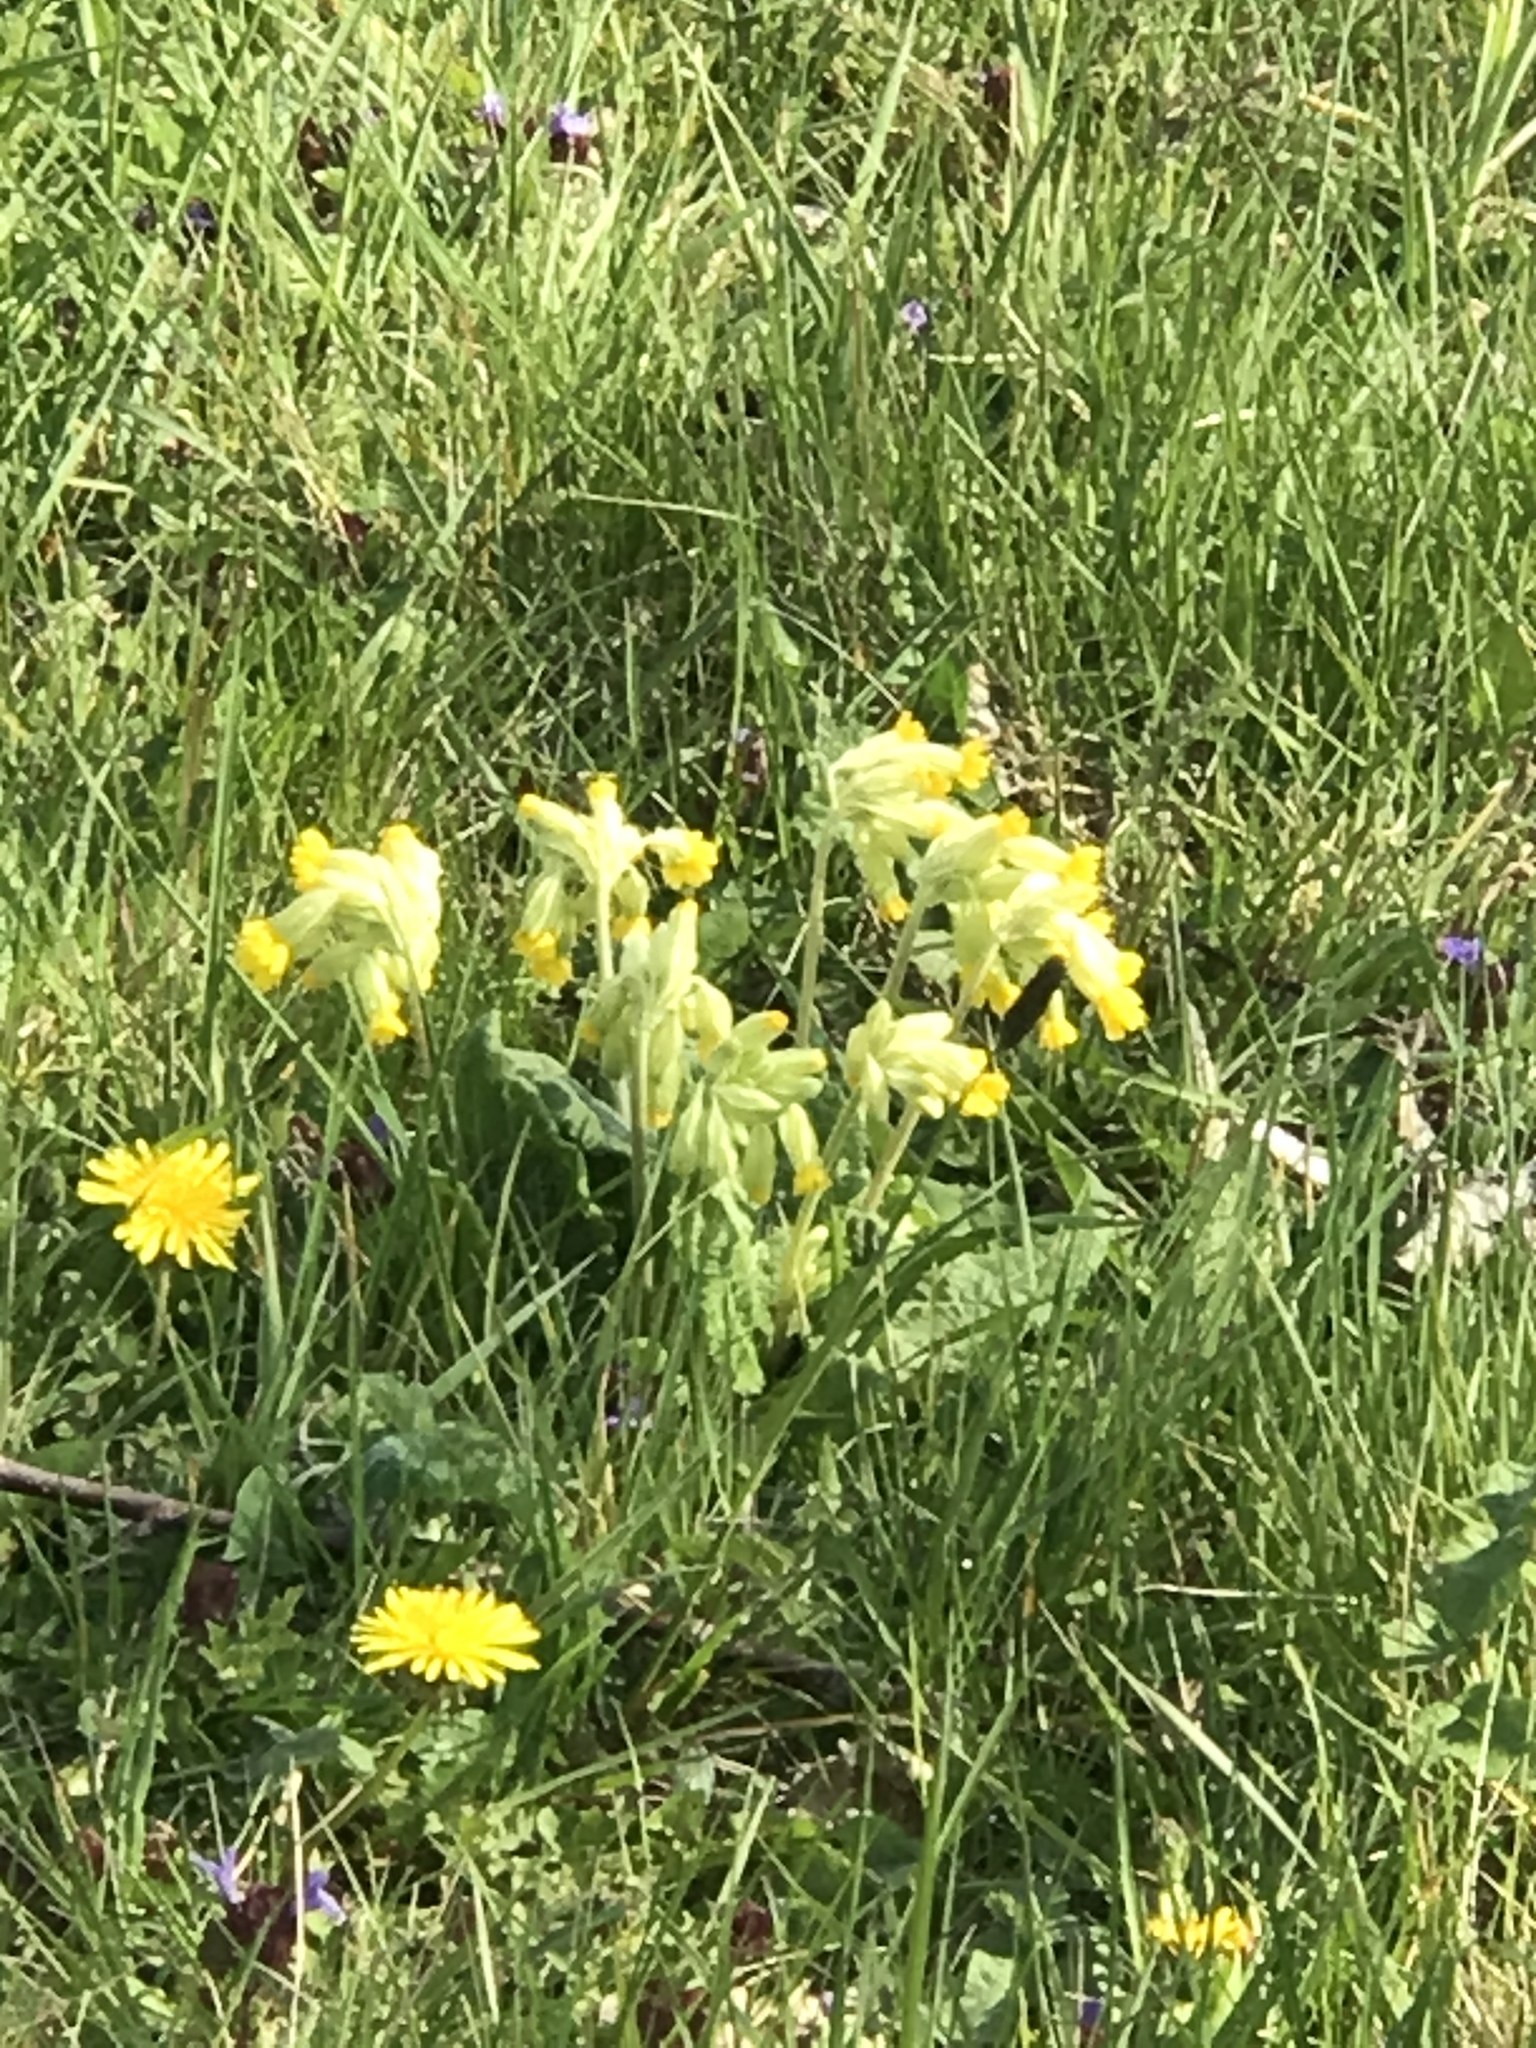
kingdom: Plantae
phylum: Tracheophyta
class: Magnoliopsida
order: Ericales
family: Primulaceae
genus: Primula
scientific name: Primula veris
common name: Cowslip
